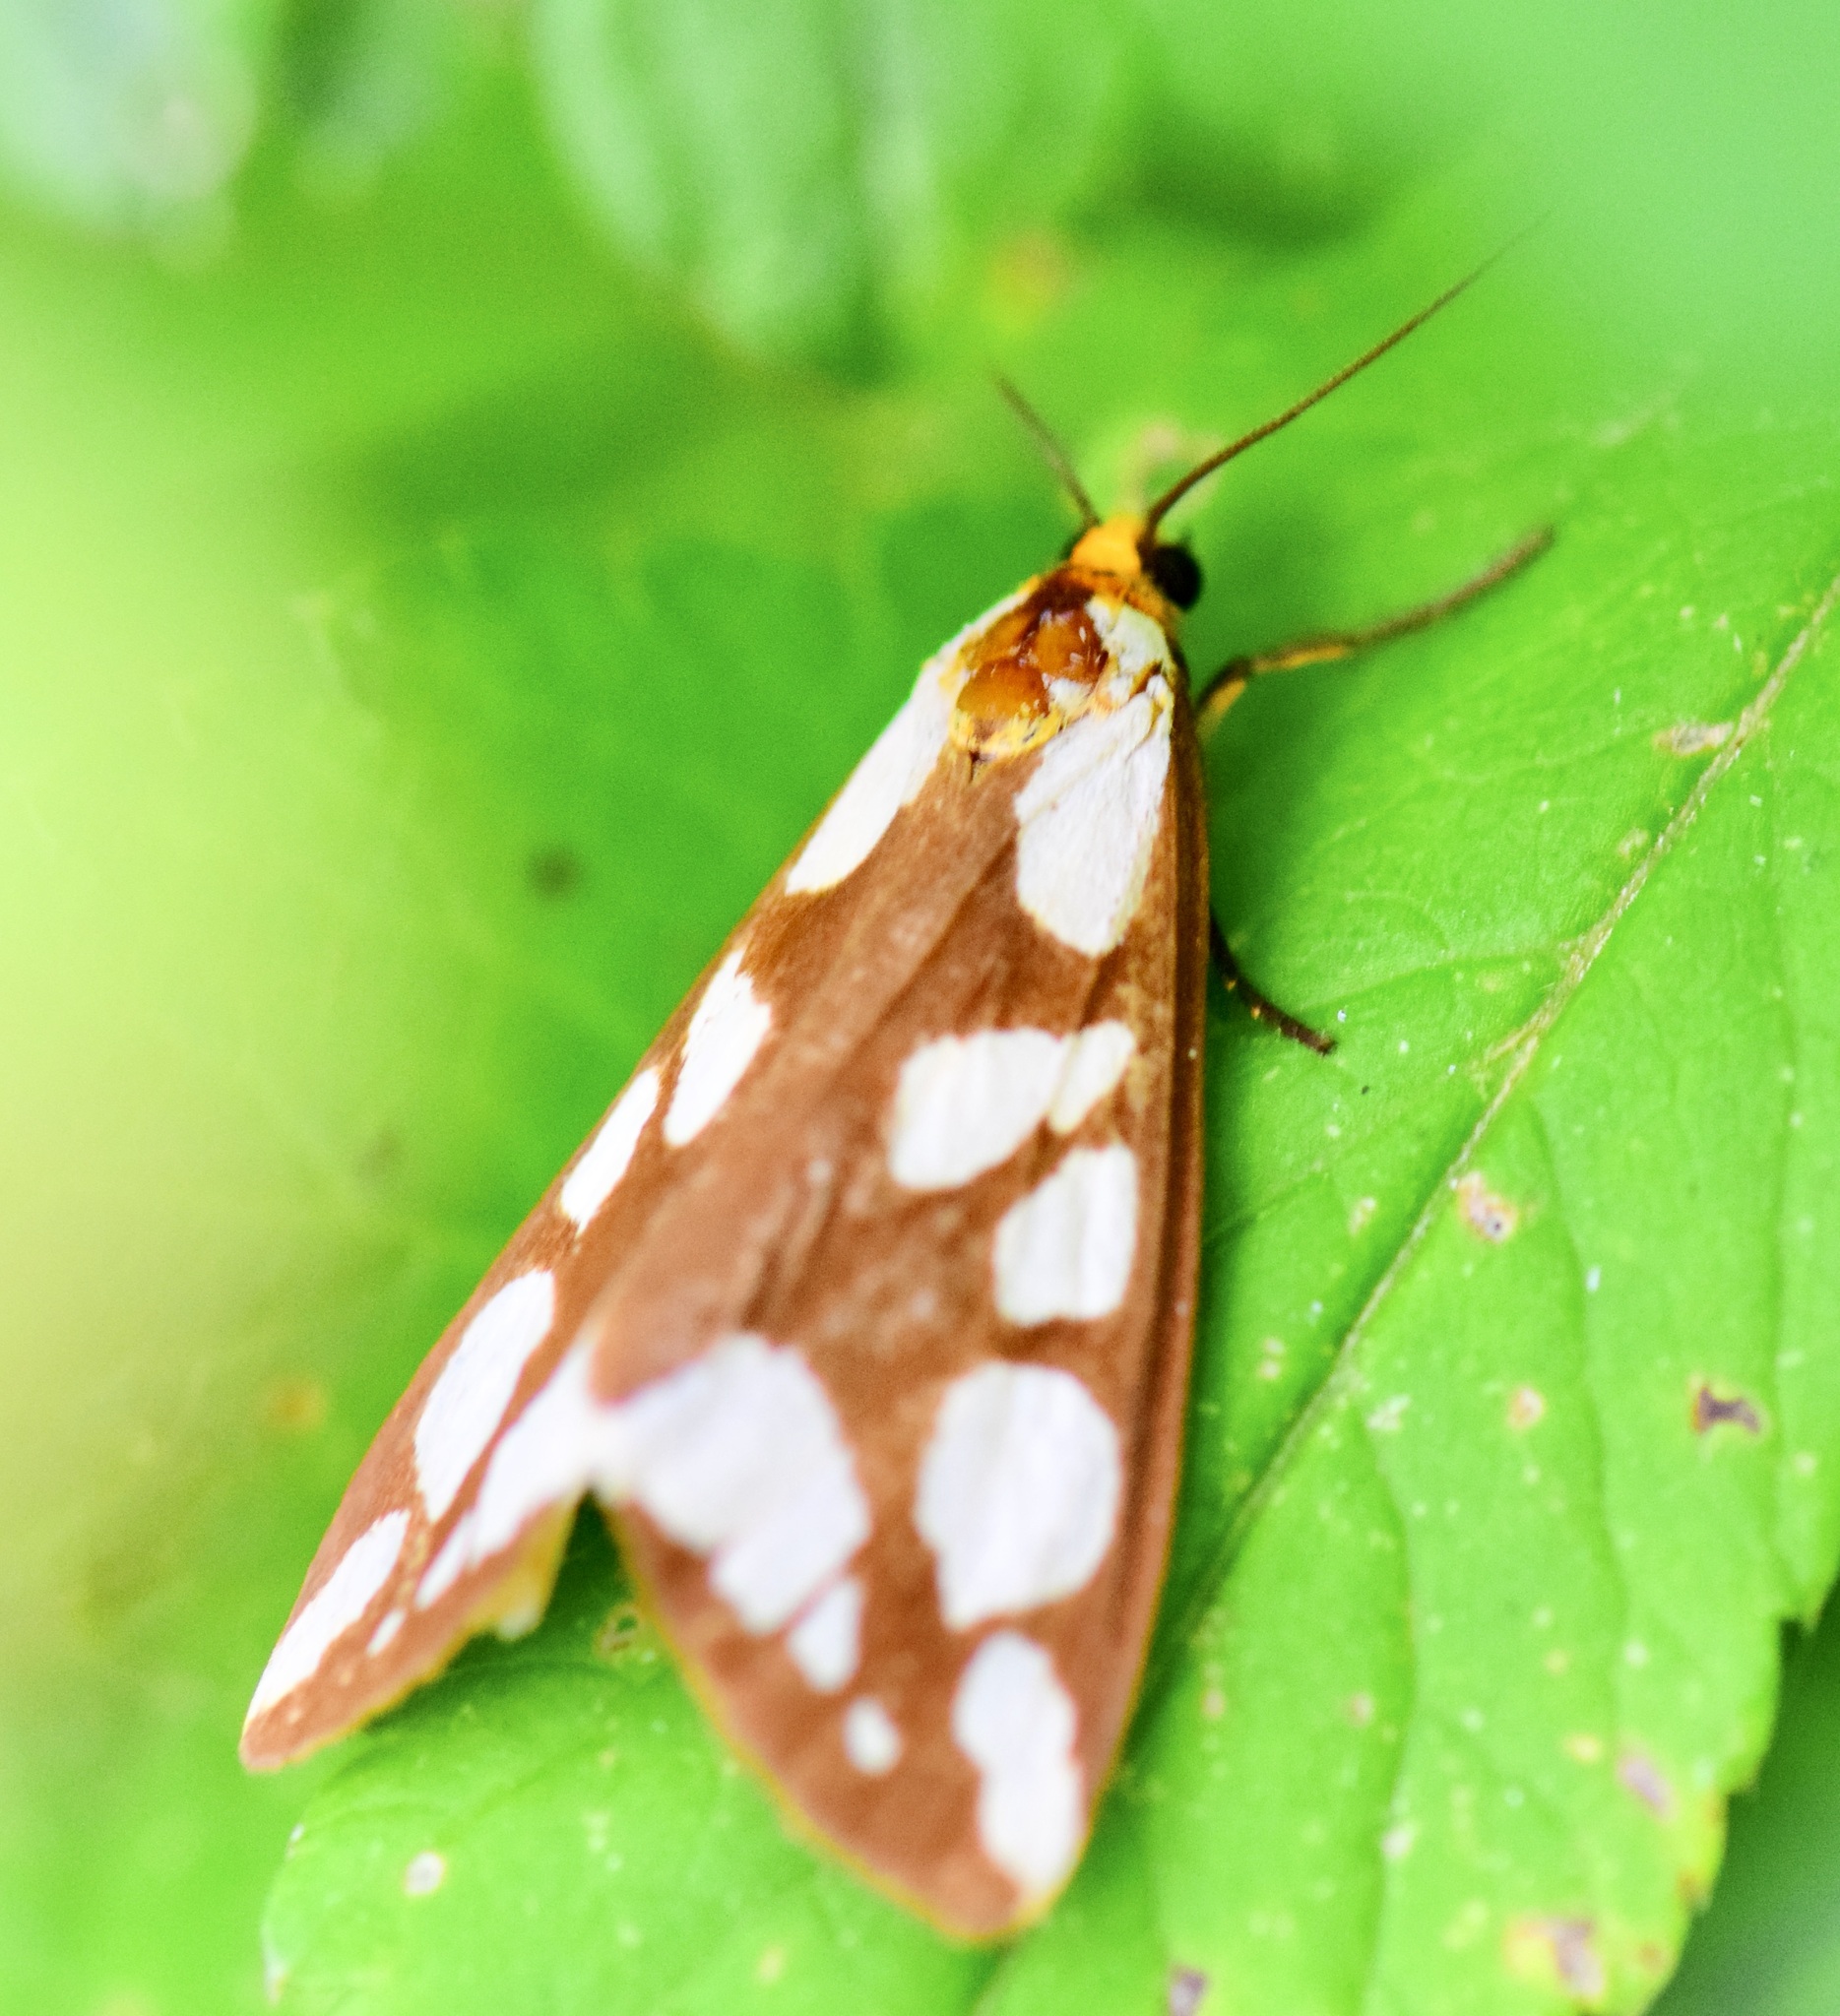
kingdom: Animalia
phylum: Arthropoda
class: Insecta
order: Lepidoptera
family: Erebidae
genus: Haploa
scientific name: Haploa confusa
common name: Confused haploa moth
